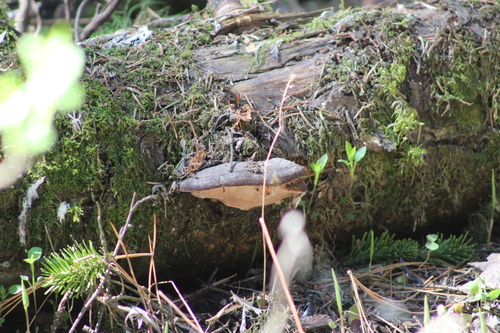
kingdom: Fungi
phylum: Basidiomycota
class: Agaricomycetes
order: Polyporales
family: Fomitopsidaceae
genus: Fomitopsis
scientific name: Fomitopsis pinicola
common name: Red-belted bracket
